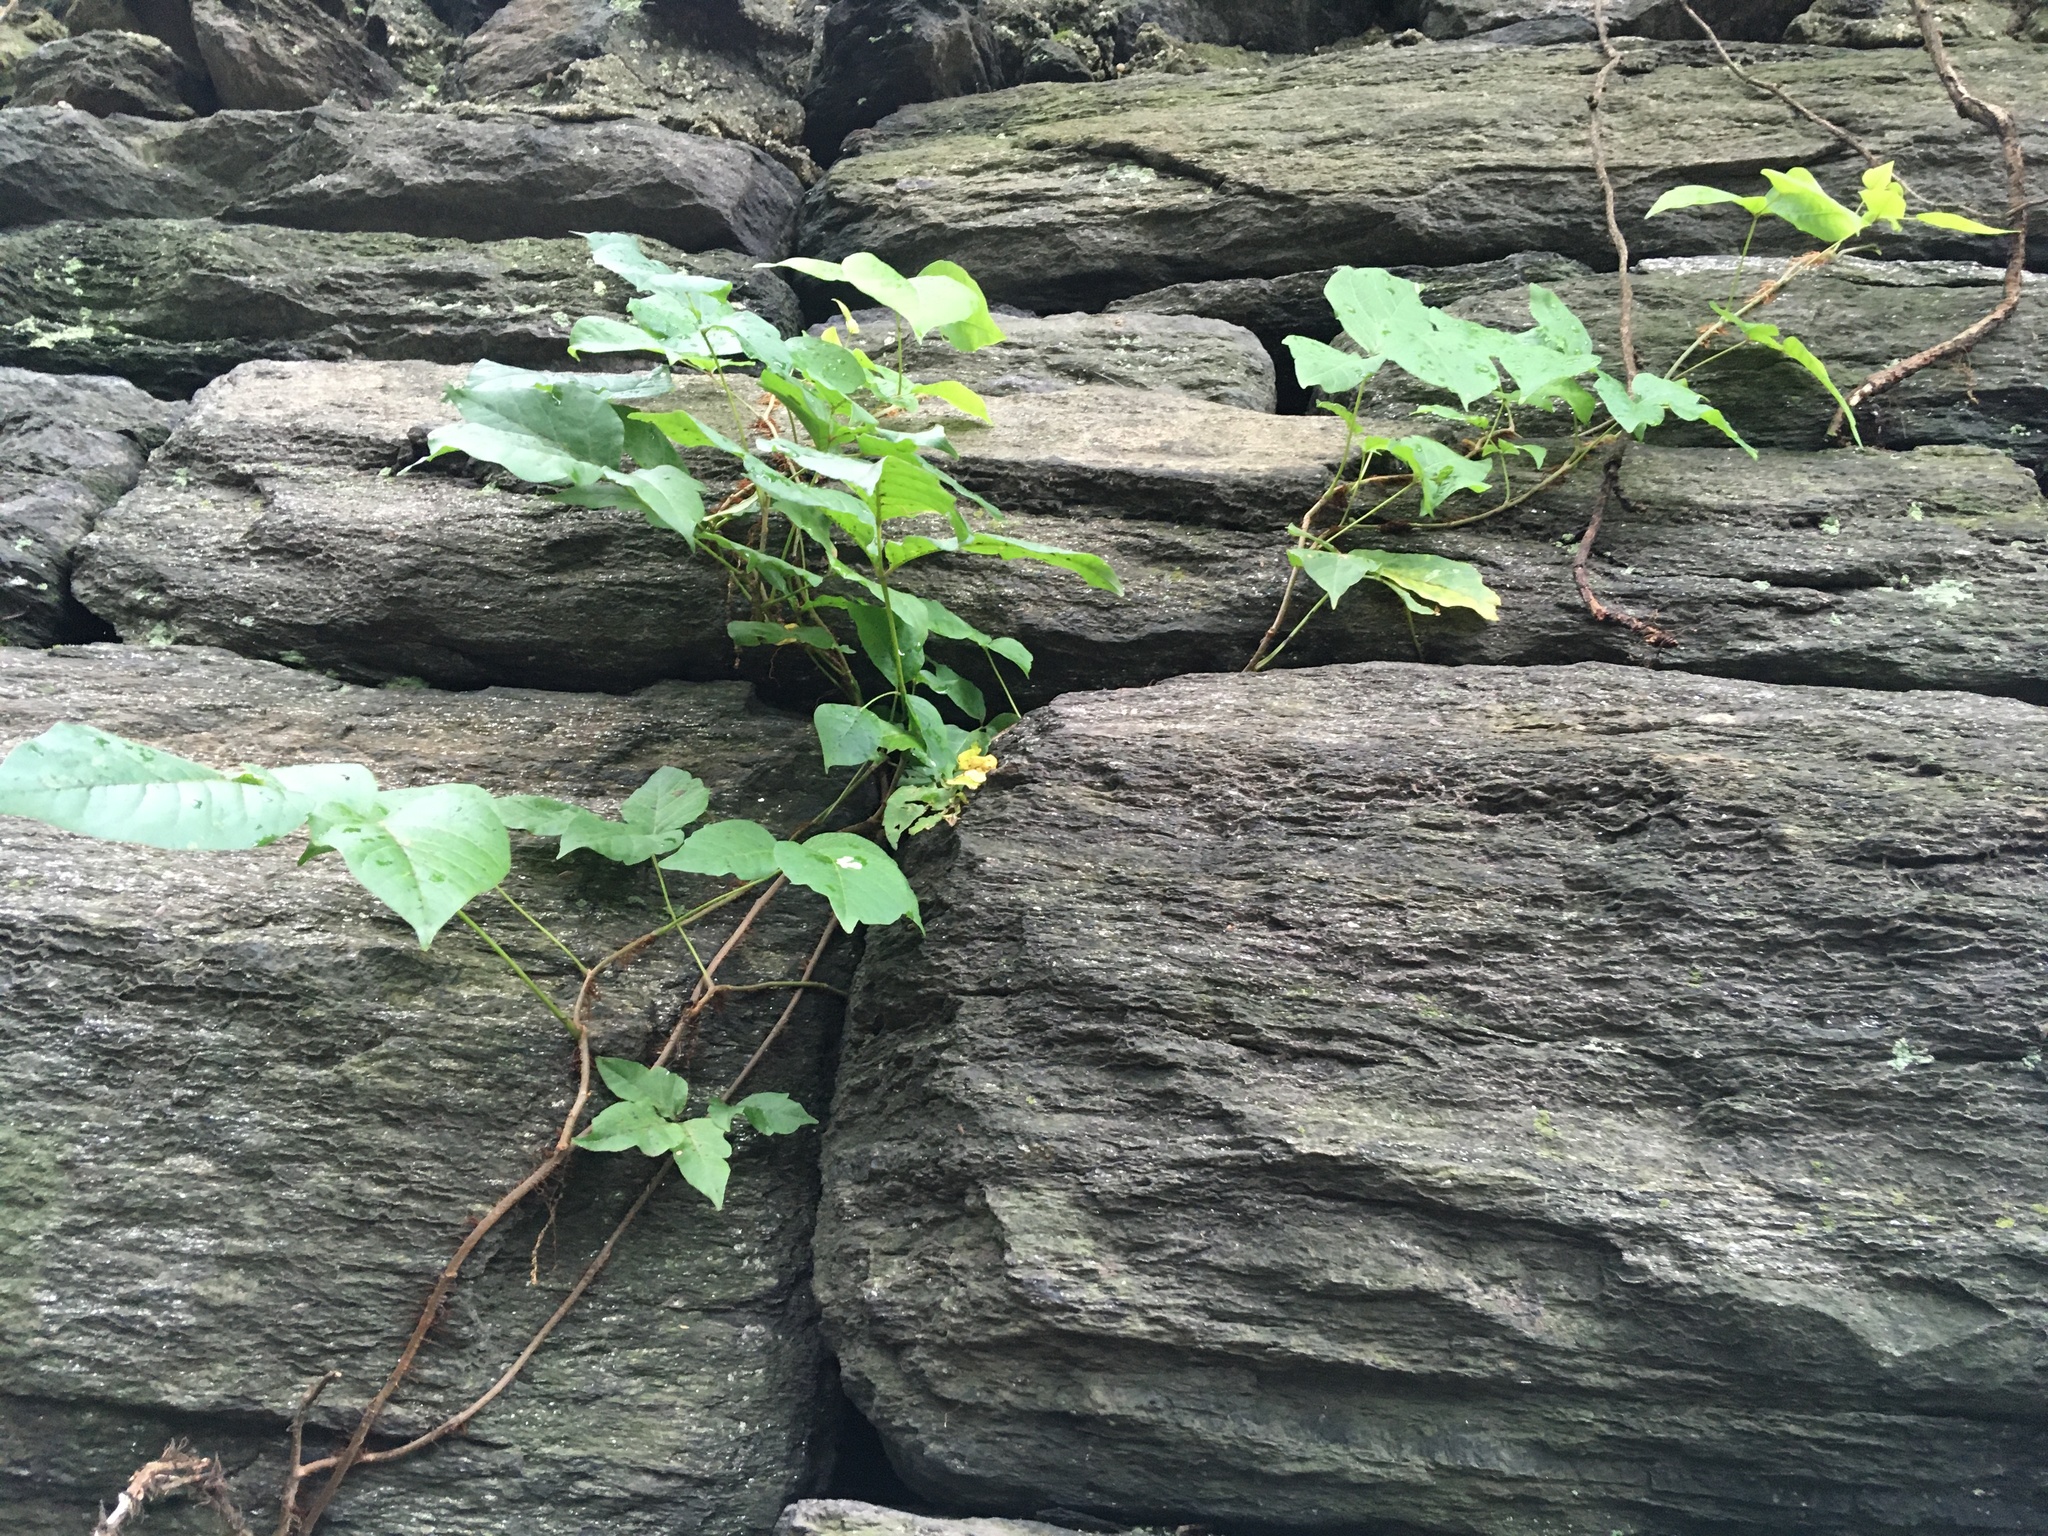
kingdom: Plantae
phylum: Tracheophyta
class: Magnoliopsida
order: Sapindales
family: Anacardiaceae
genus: Toxicodendron
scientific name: Toxicodendron radicans
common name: Poison ivy
